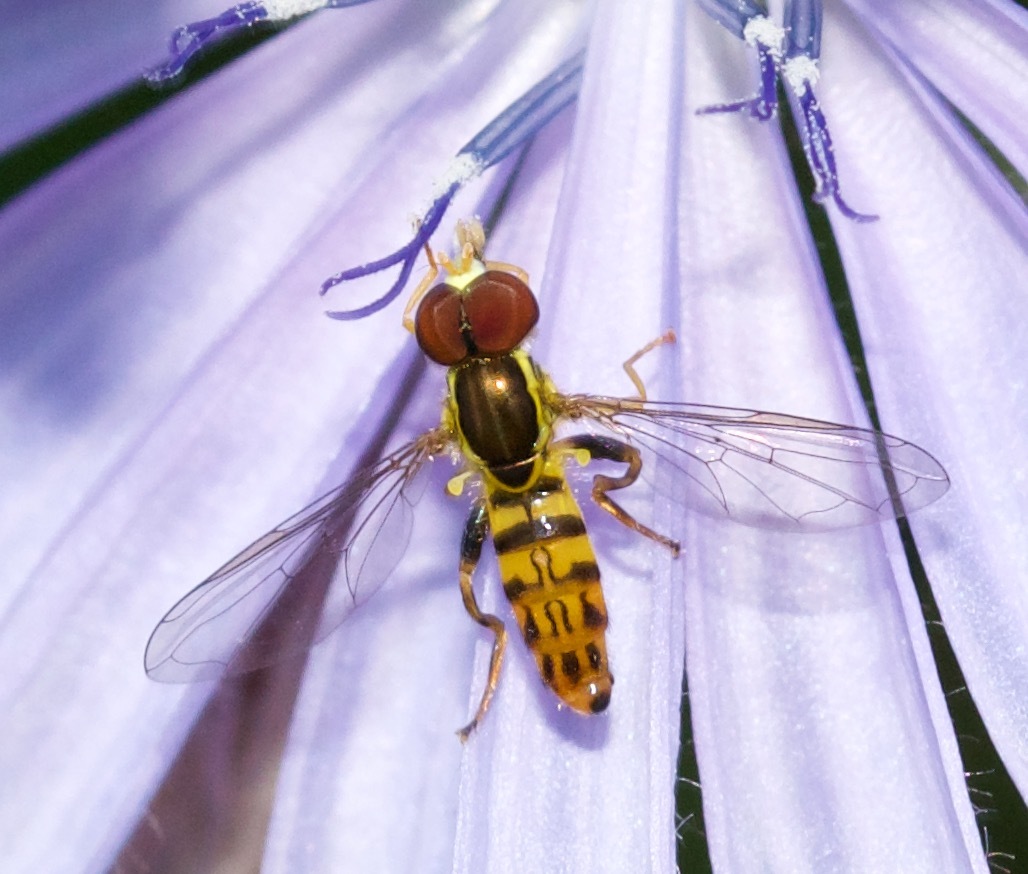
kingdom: Animalia
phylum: Arthropoda
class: Insecta
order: Diptera
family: Syrphidae
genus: Toxomerus
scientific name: Toxomerus geminatus
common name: Eastern calligrapher
